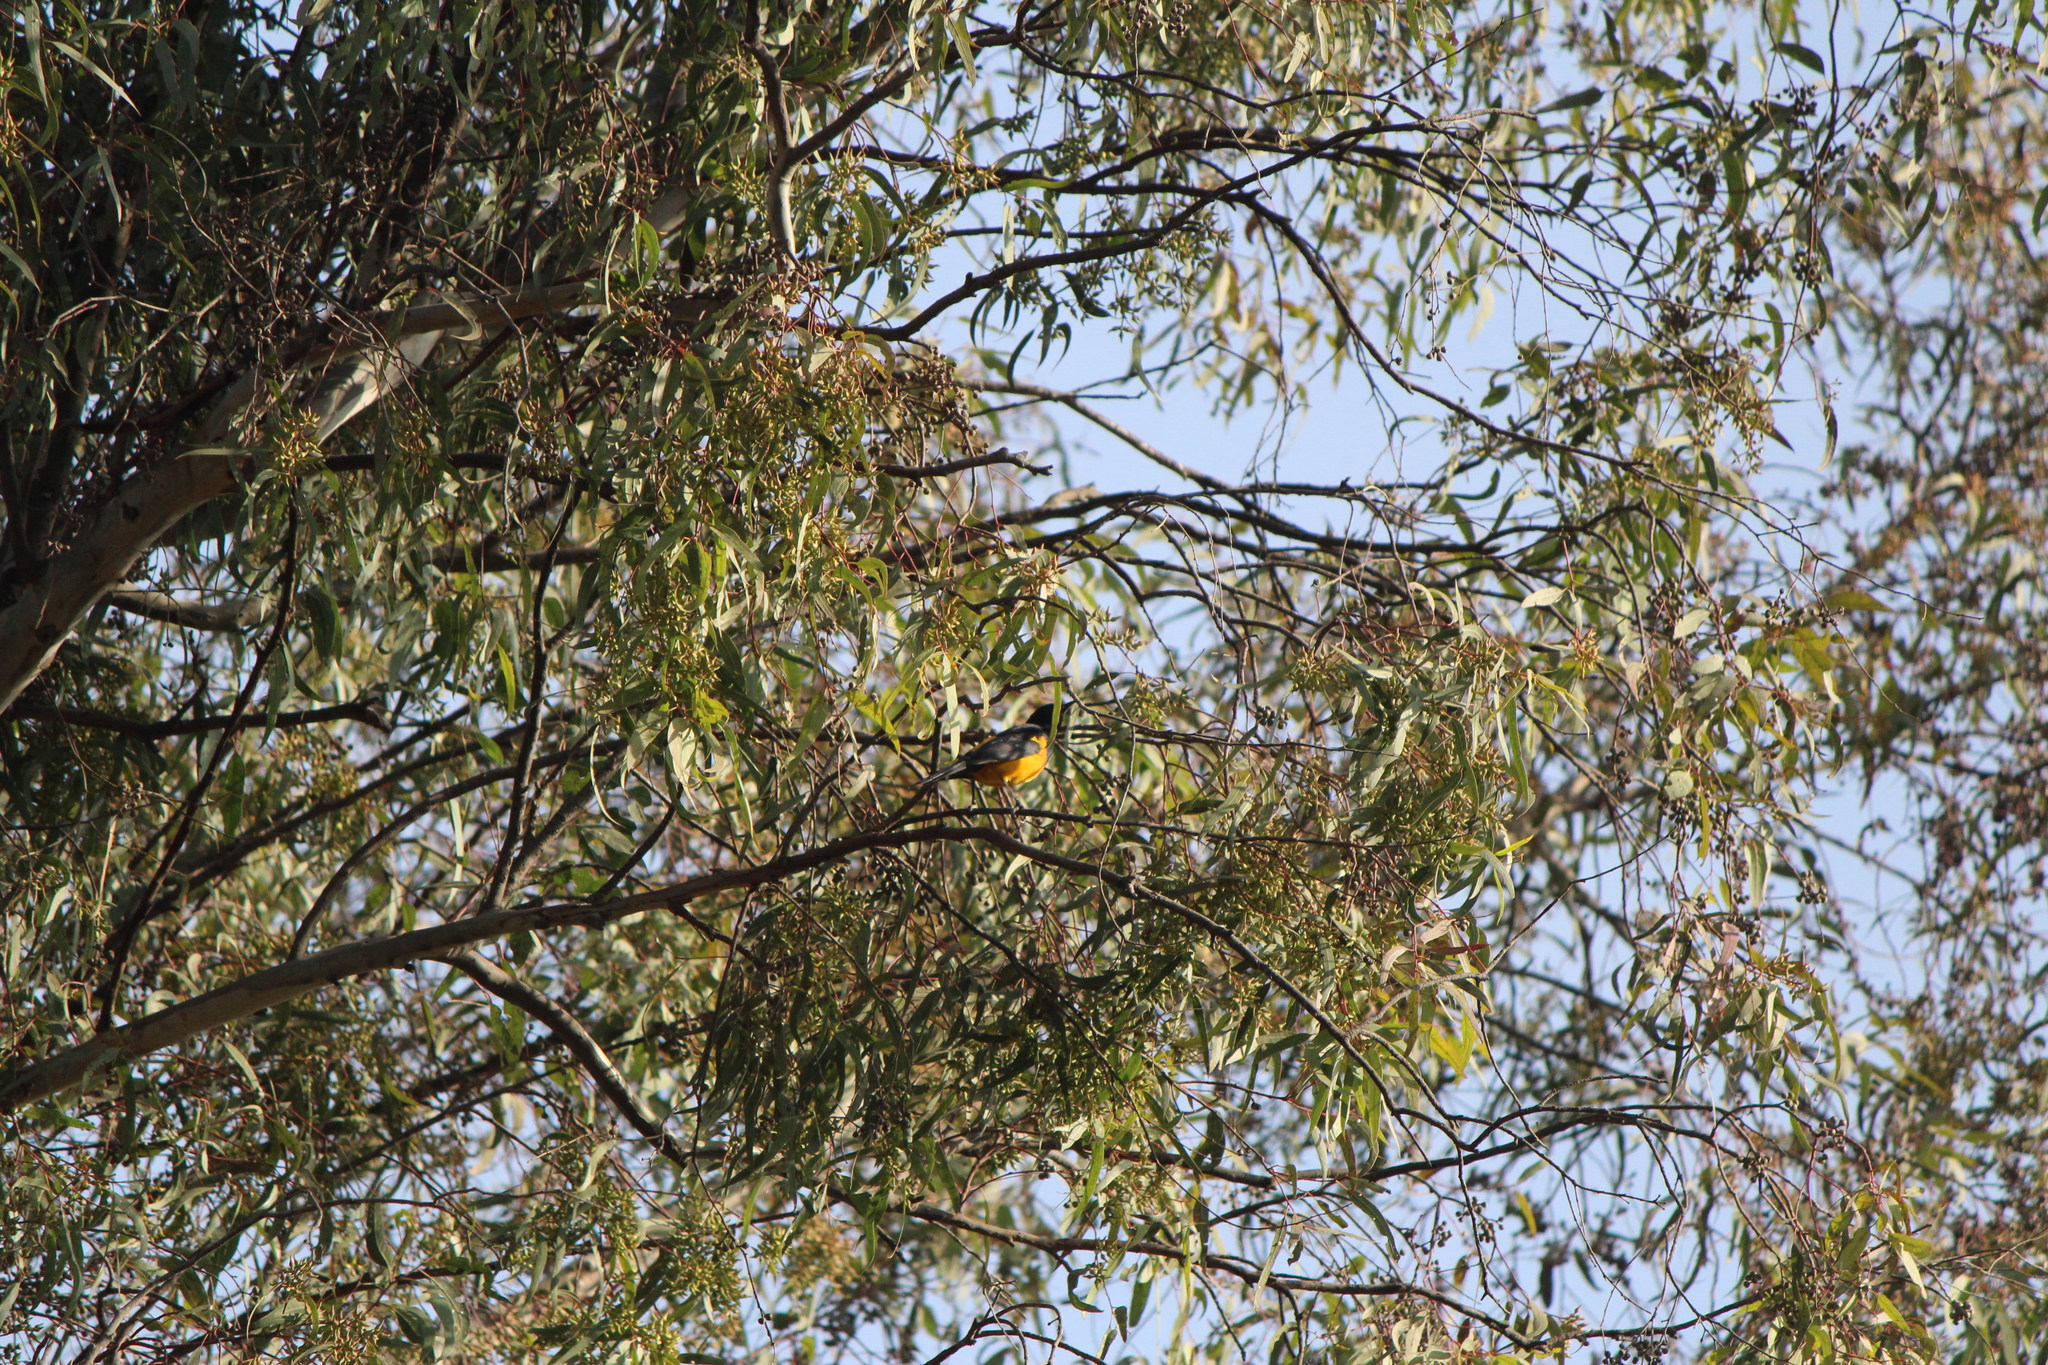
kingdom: Animalia
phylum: Chordata
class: Aves
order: Passeriformes
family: Icteridae
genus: Icterus
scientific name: Icterus wagleri
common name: Black-vented oriole
